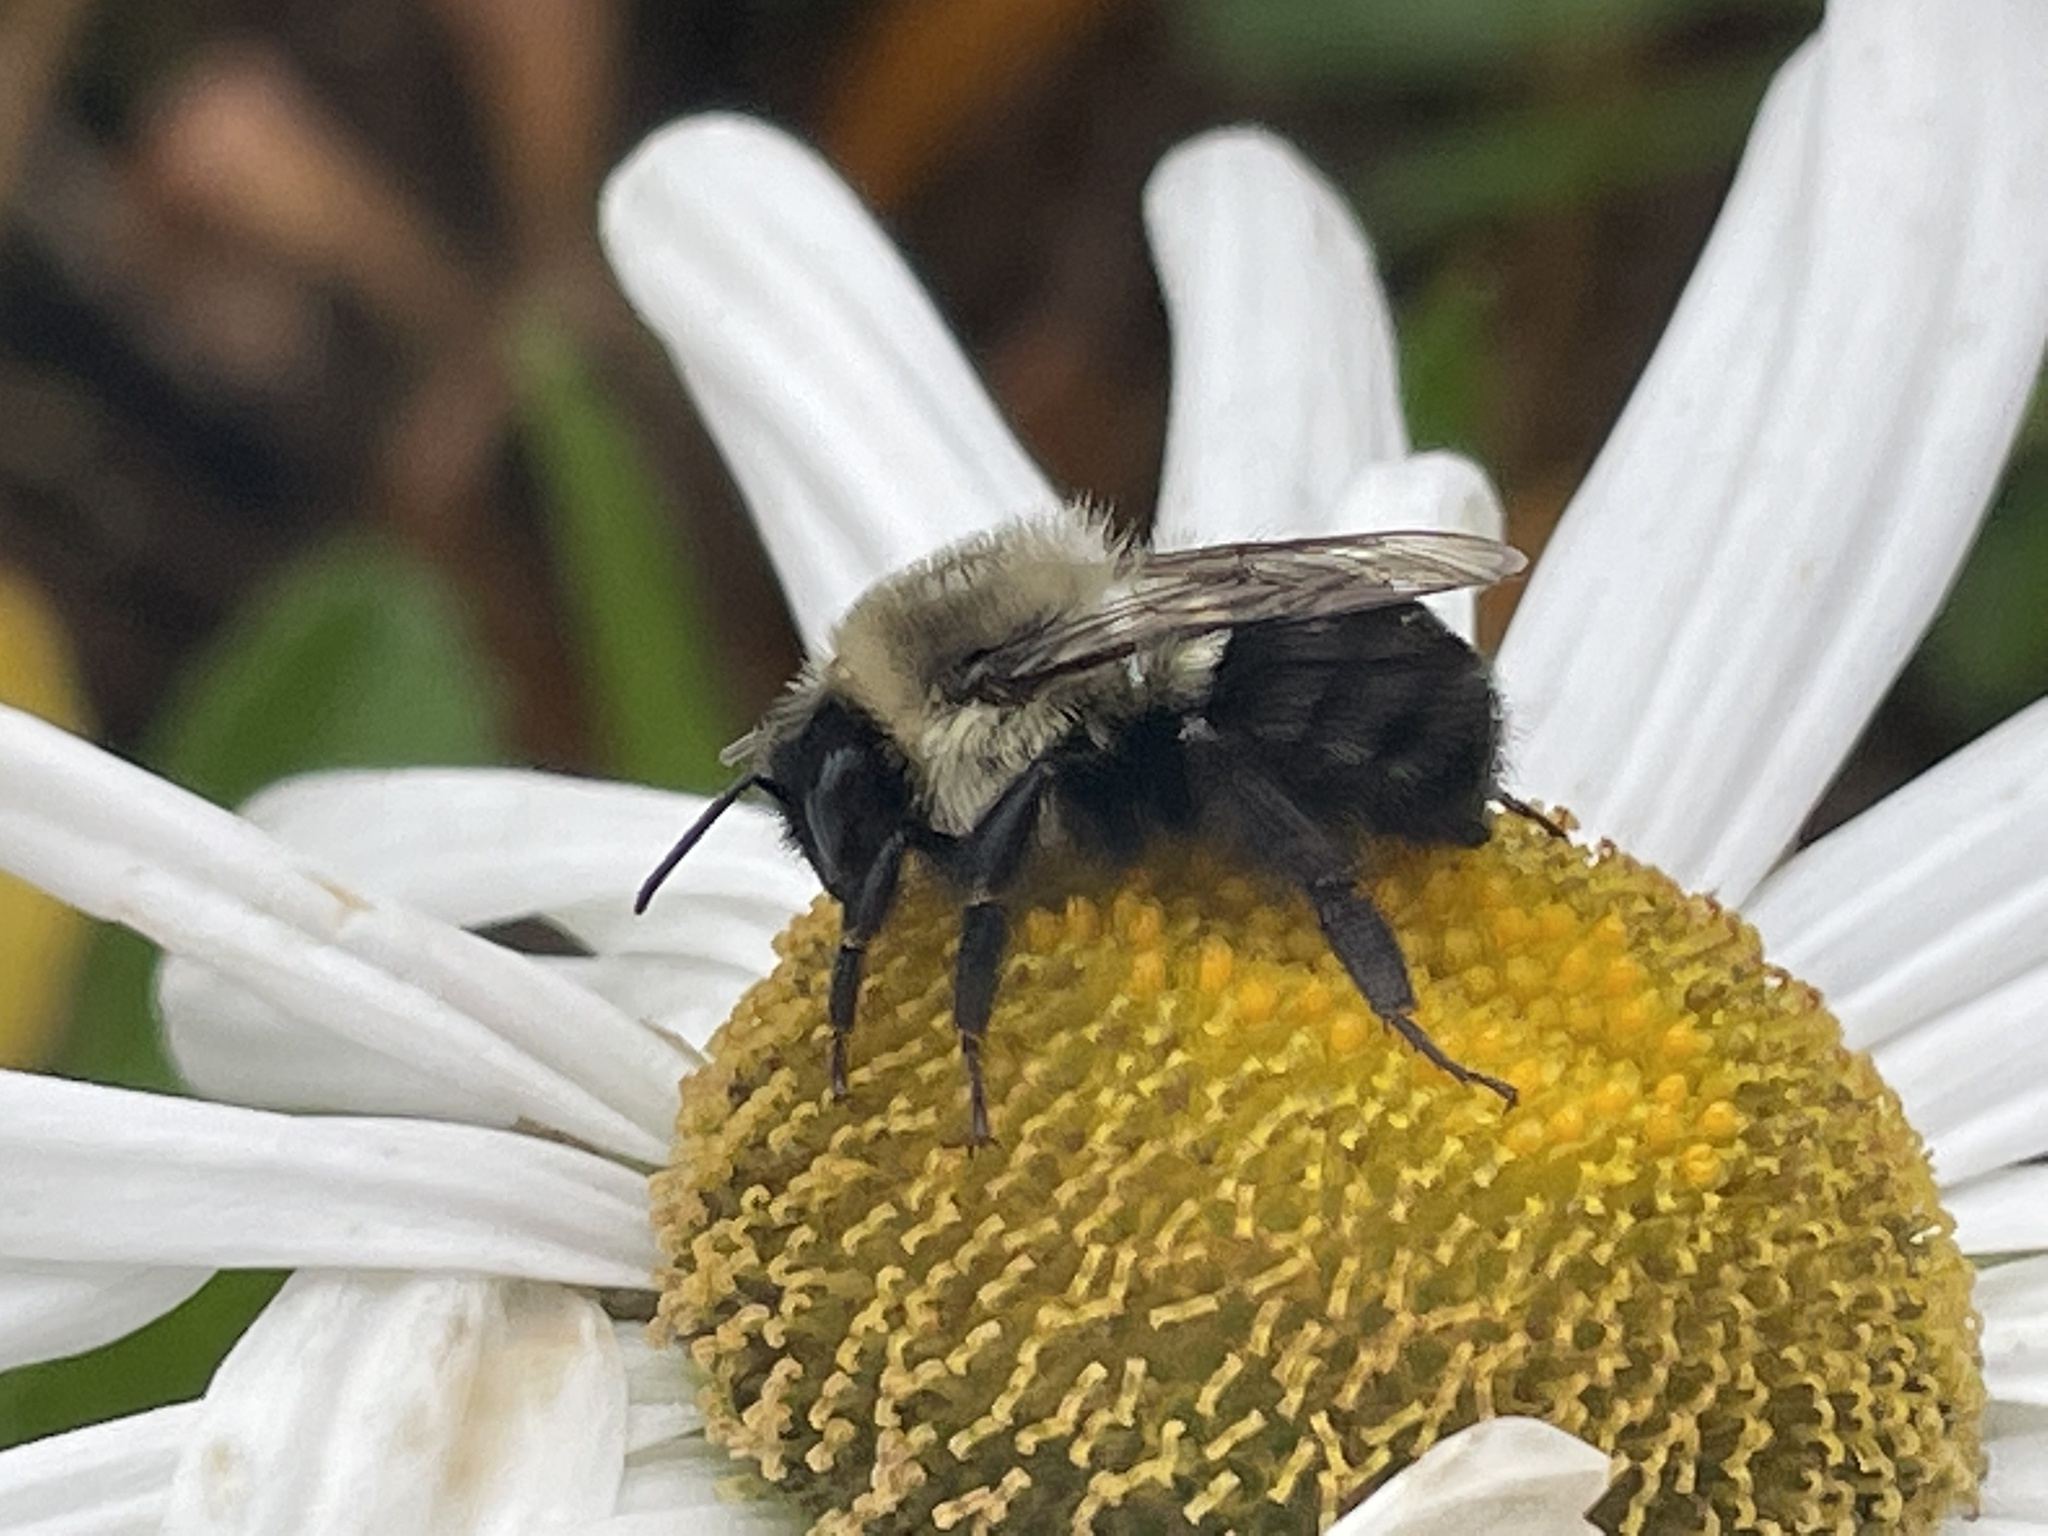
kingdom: Animalia
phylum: Arthropoda
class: Insecta
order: Hymenoptera
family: Apidae
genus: Bombus
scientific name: Bombus impatiens
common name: Common eastern bumble bee
